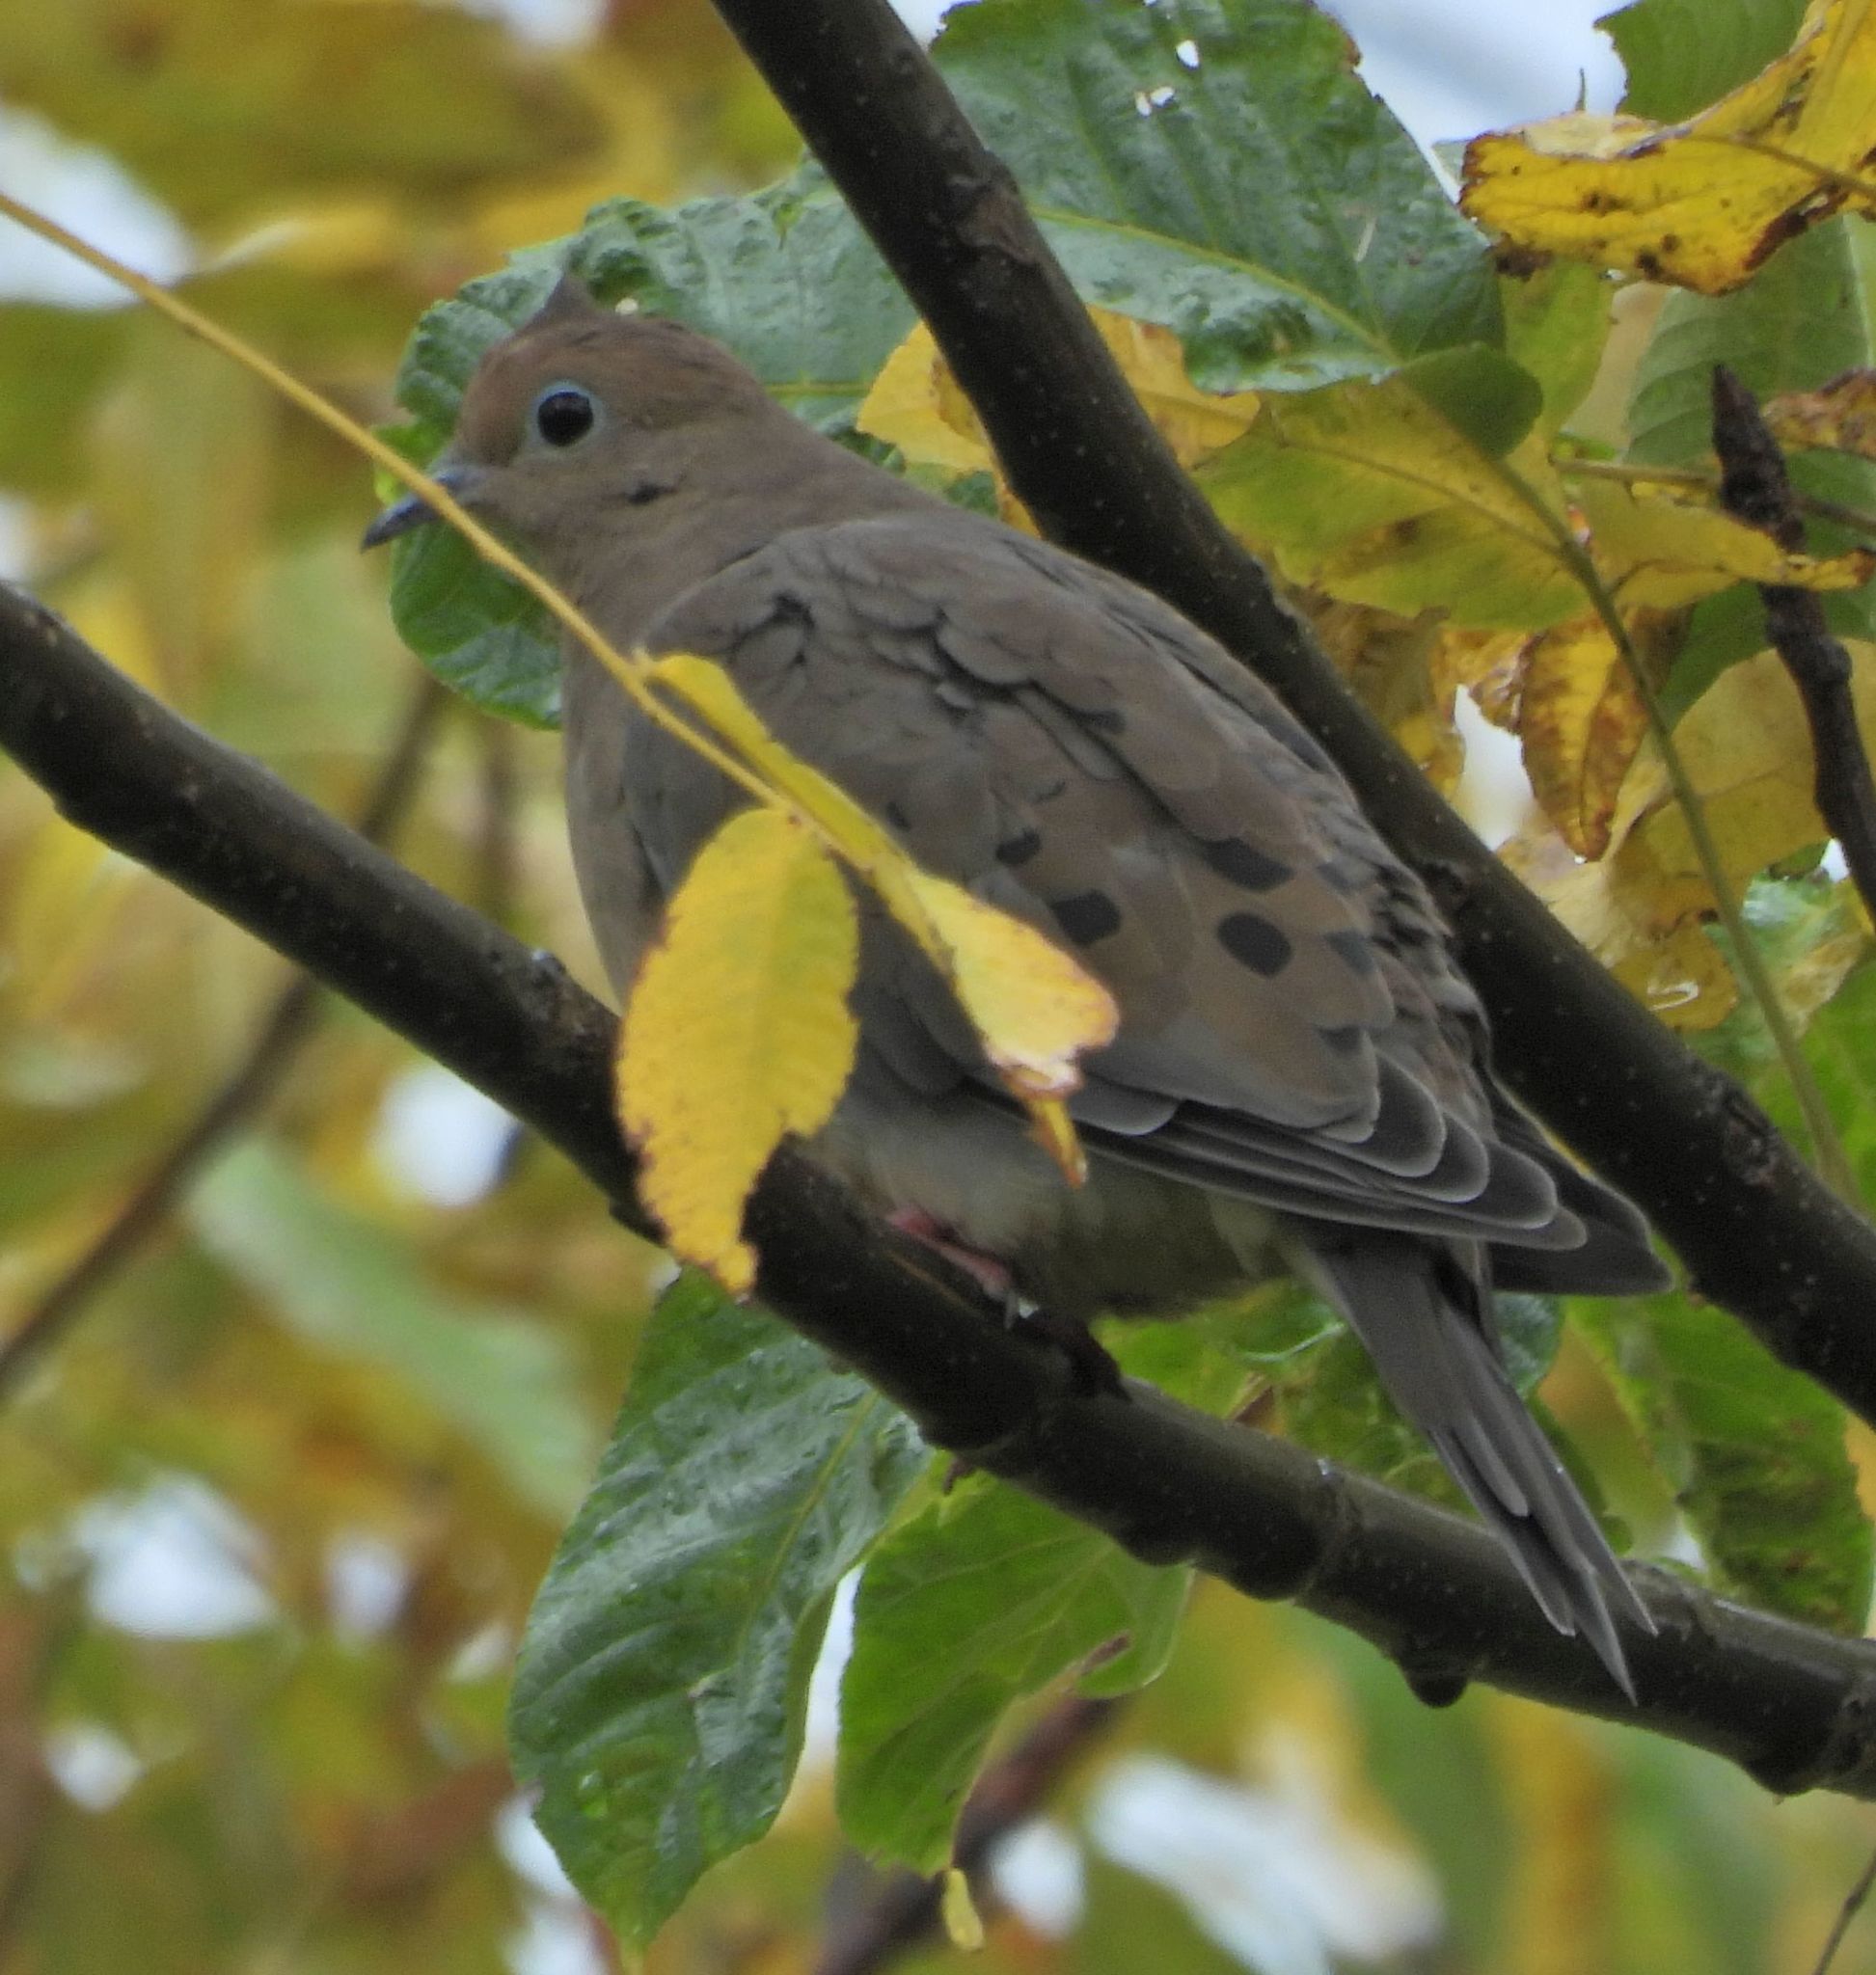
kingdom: Animalia
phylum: Chordata
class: Aves
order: Columbiformes
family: Columbidae
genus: Zenaida
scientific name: Zenaida macroura
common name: Mourning dove
